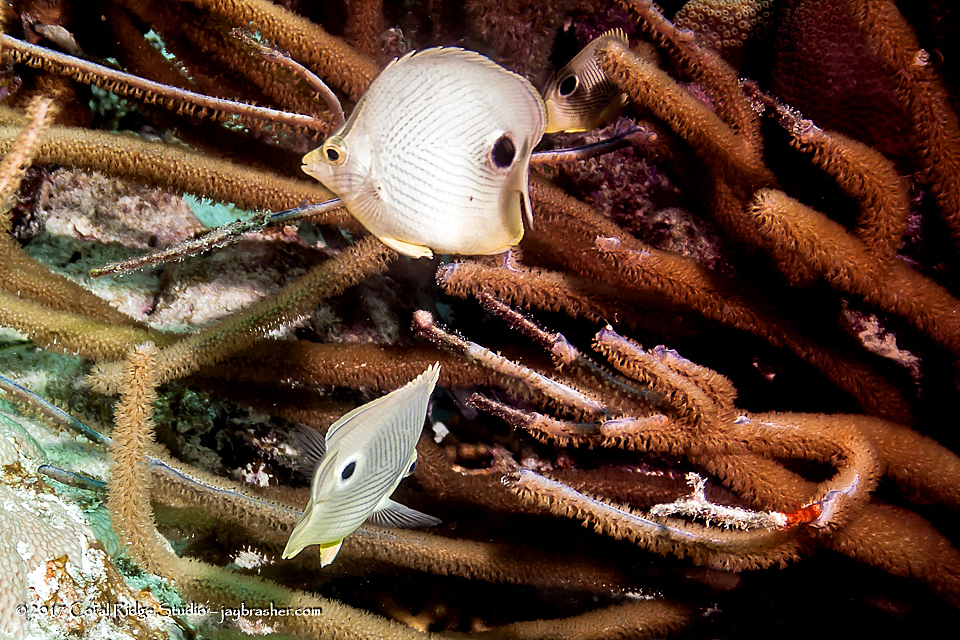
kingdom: Animalia
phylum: Chordata
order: Perciformes
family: Chaetodontidae
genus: Chaetodon
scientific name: Chaetodon capistratus
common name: Kete
